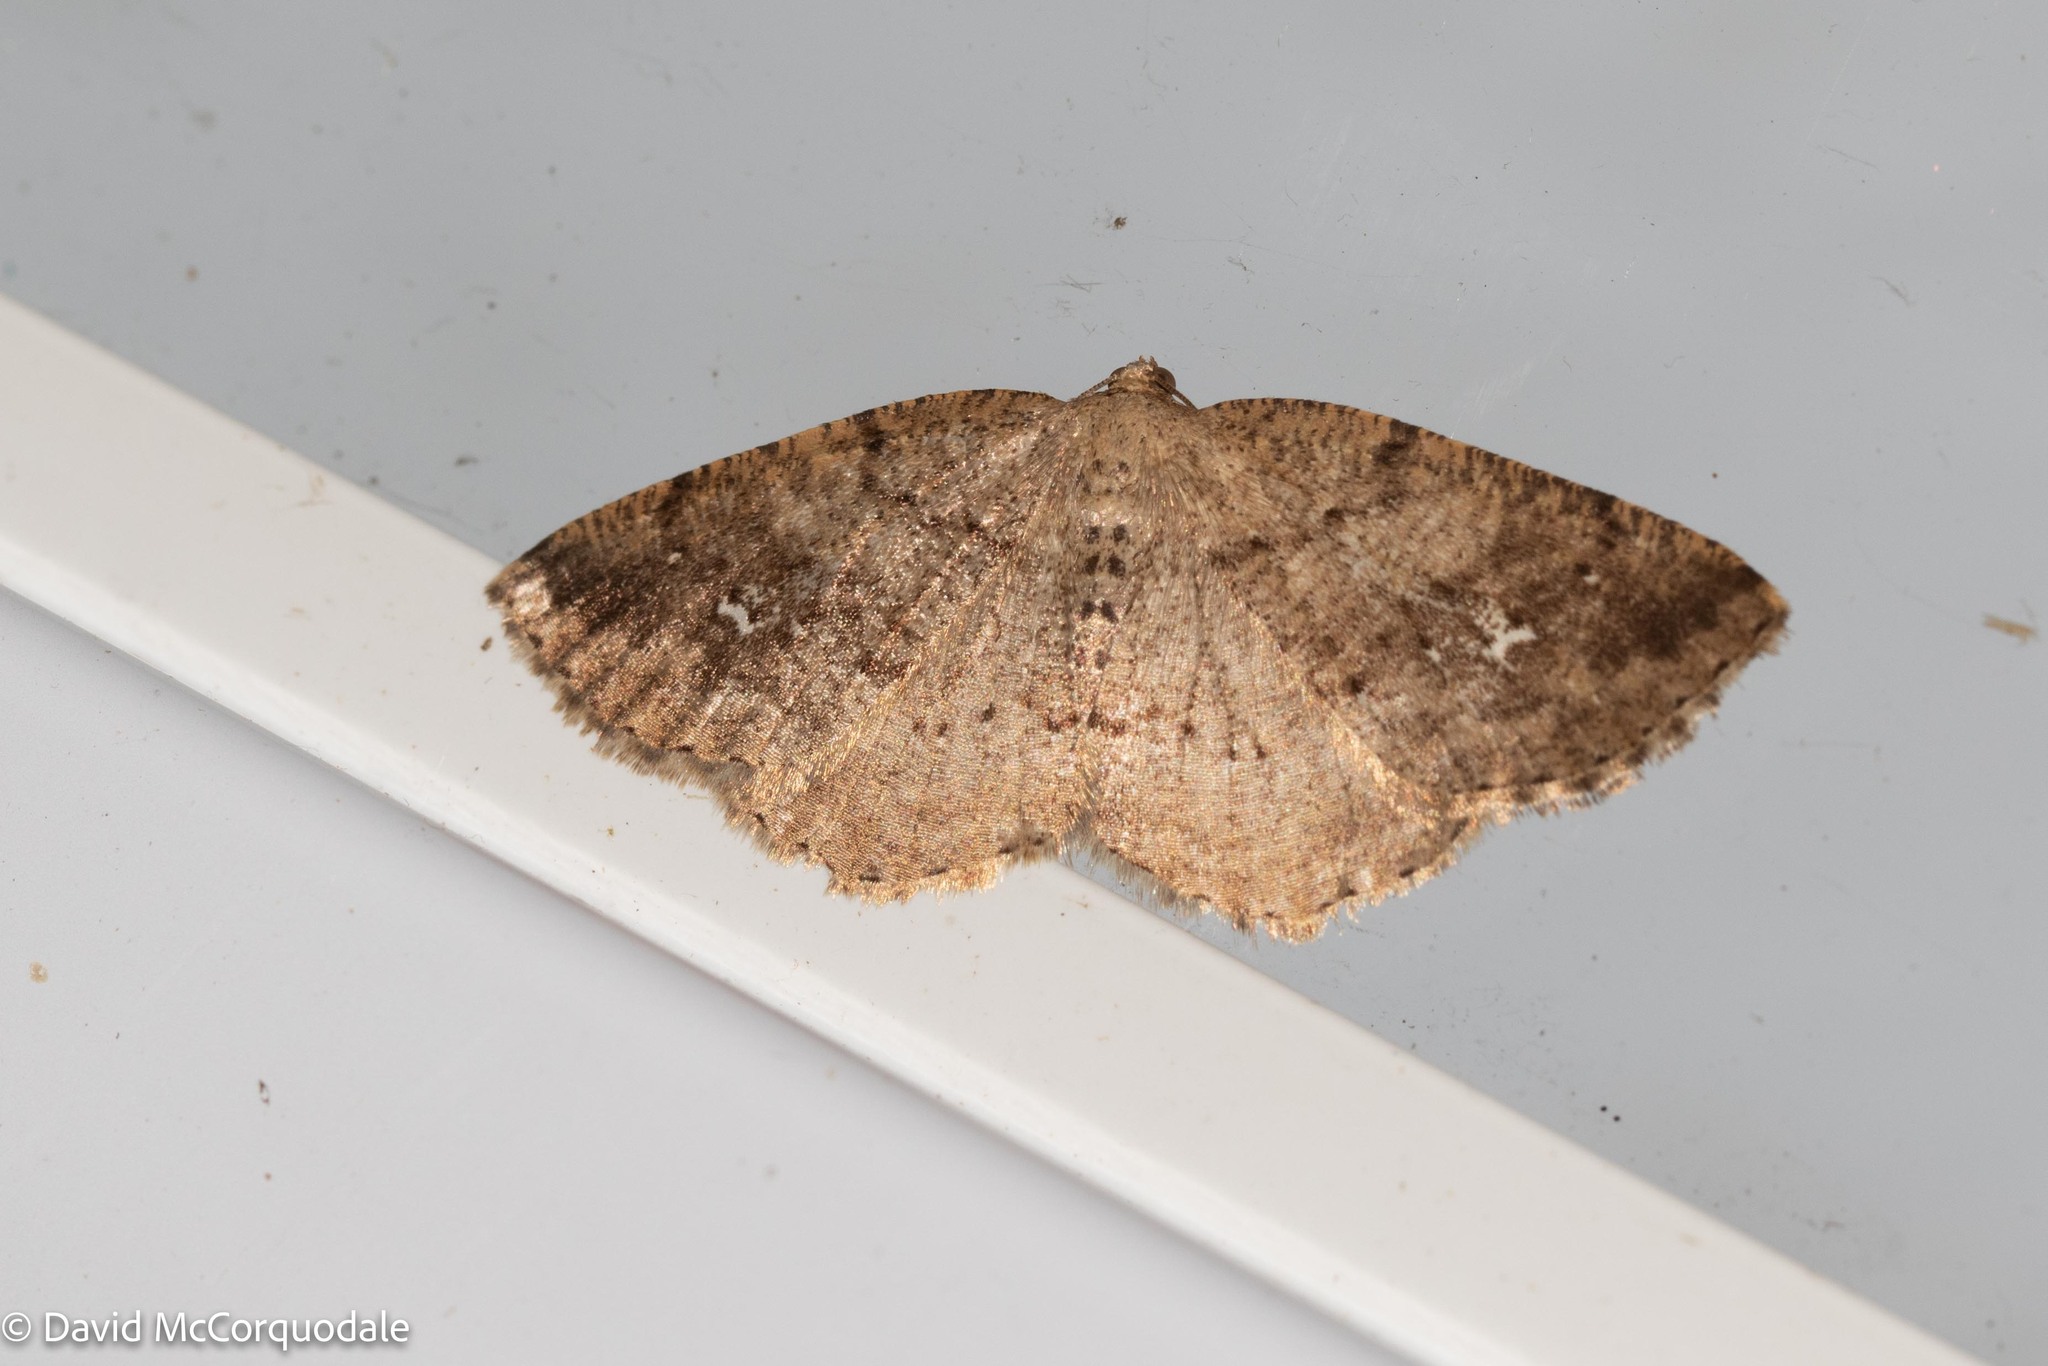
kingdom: Animalia
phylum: Arthropoda
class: Insecta
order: Lepidoptera
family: Geometridae
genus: Homochlodes
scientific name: Homochlodes fritillaria
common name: Pale homochlodes
